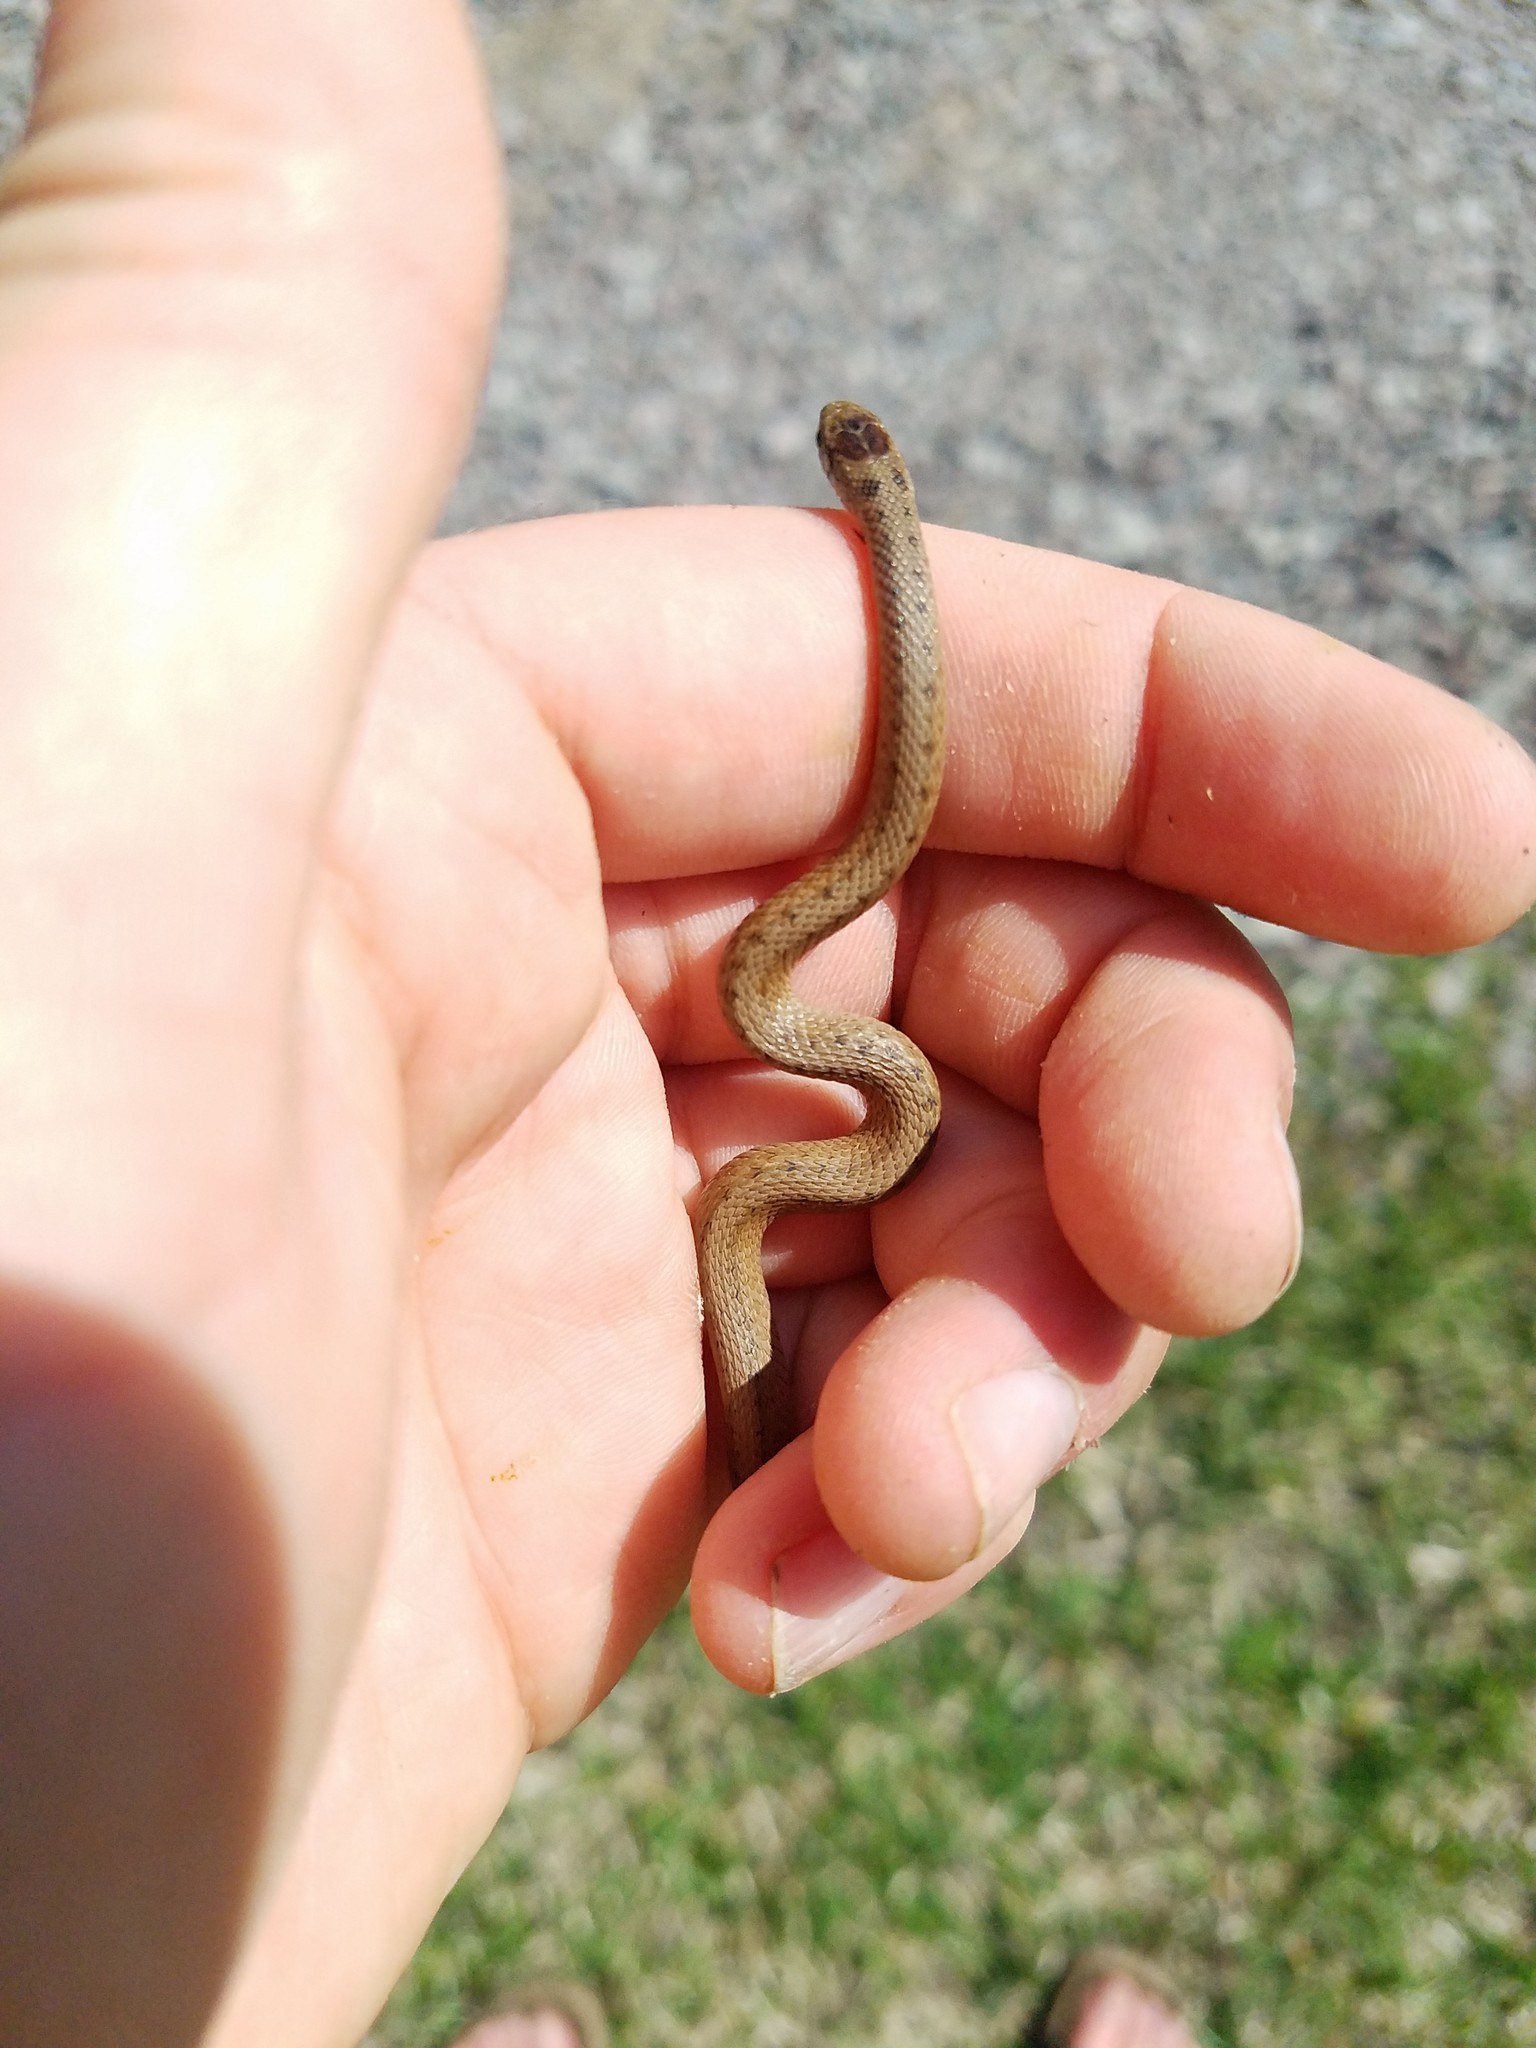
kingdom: Animalia
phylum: Chordata
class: Squamata
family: Colubridae
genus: Storeria
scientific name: Storeria dekayi
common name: (dekay’s) brown snake
